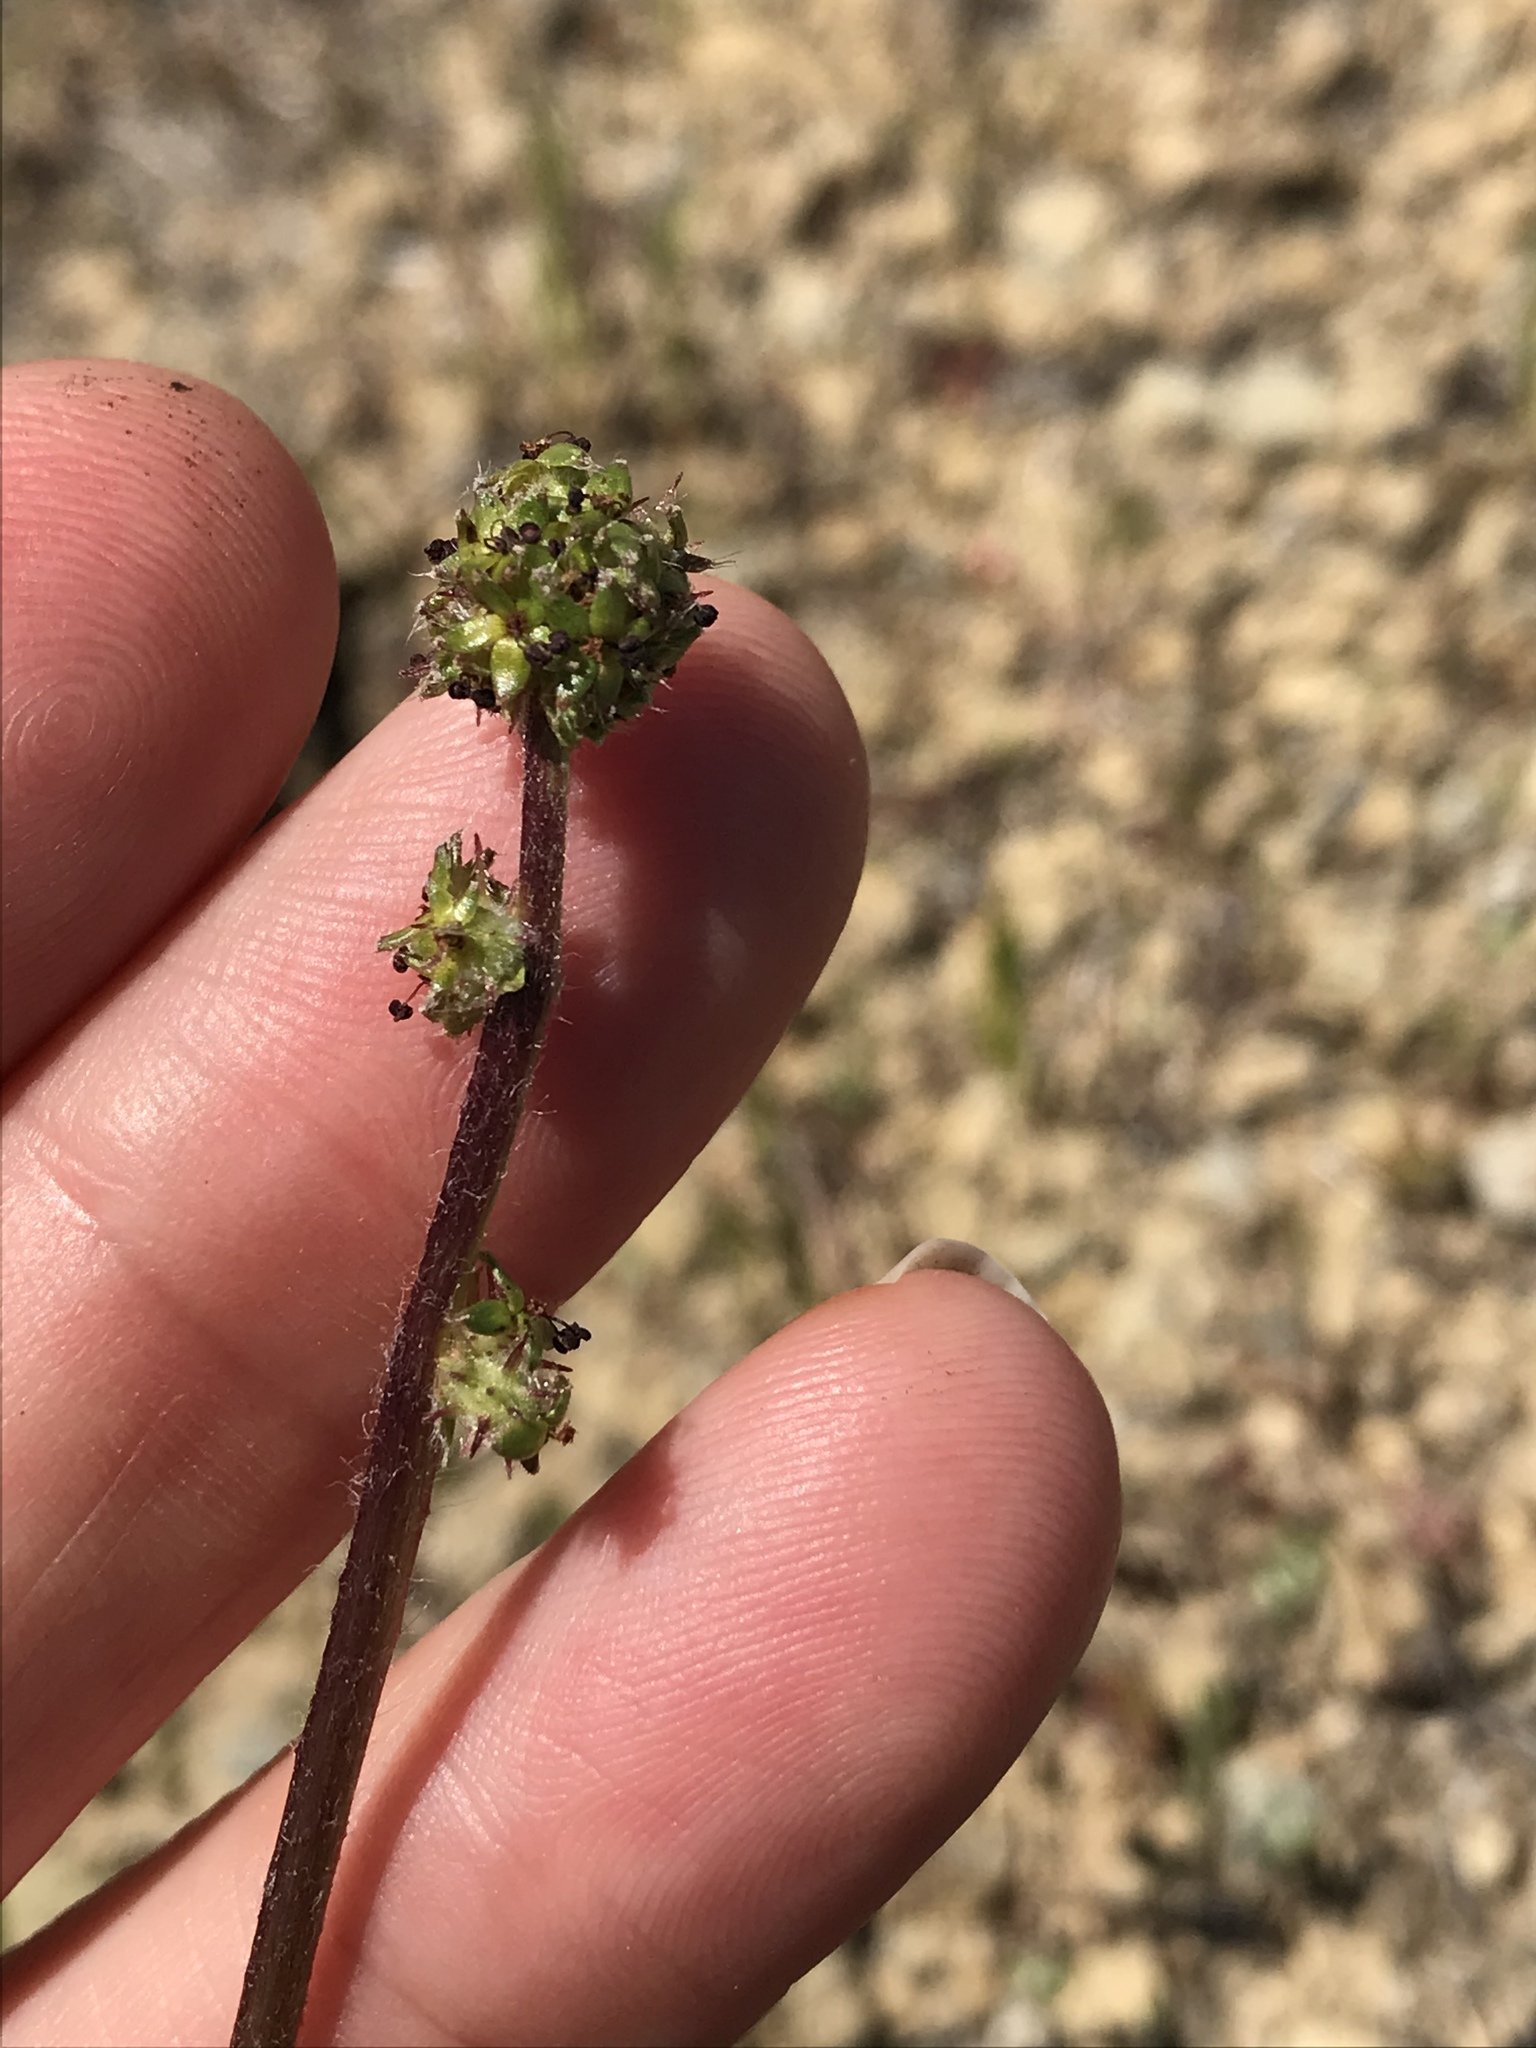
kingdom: Plantae
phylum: Tracheophyta
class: Magnoliopsida
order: Rosales
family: Rosaceae
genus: Acaena
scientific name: Acaena pinnatifida
